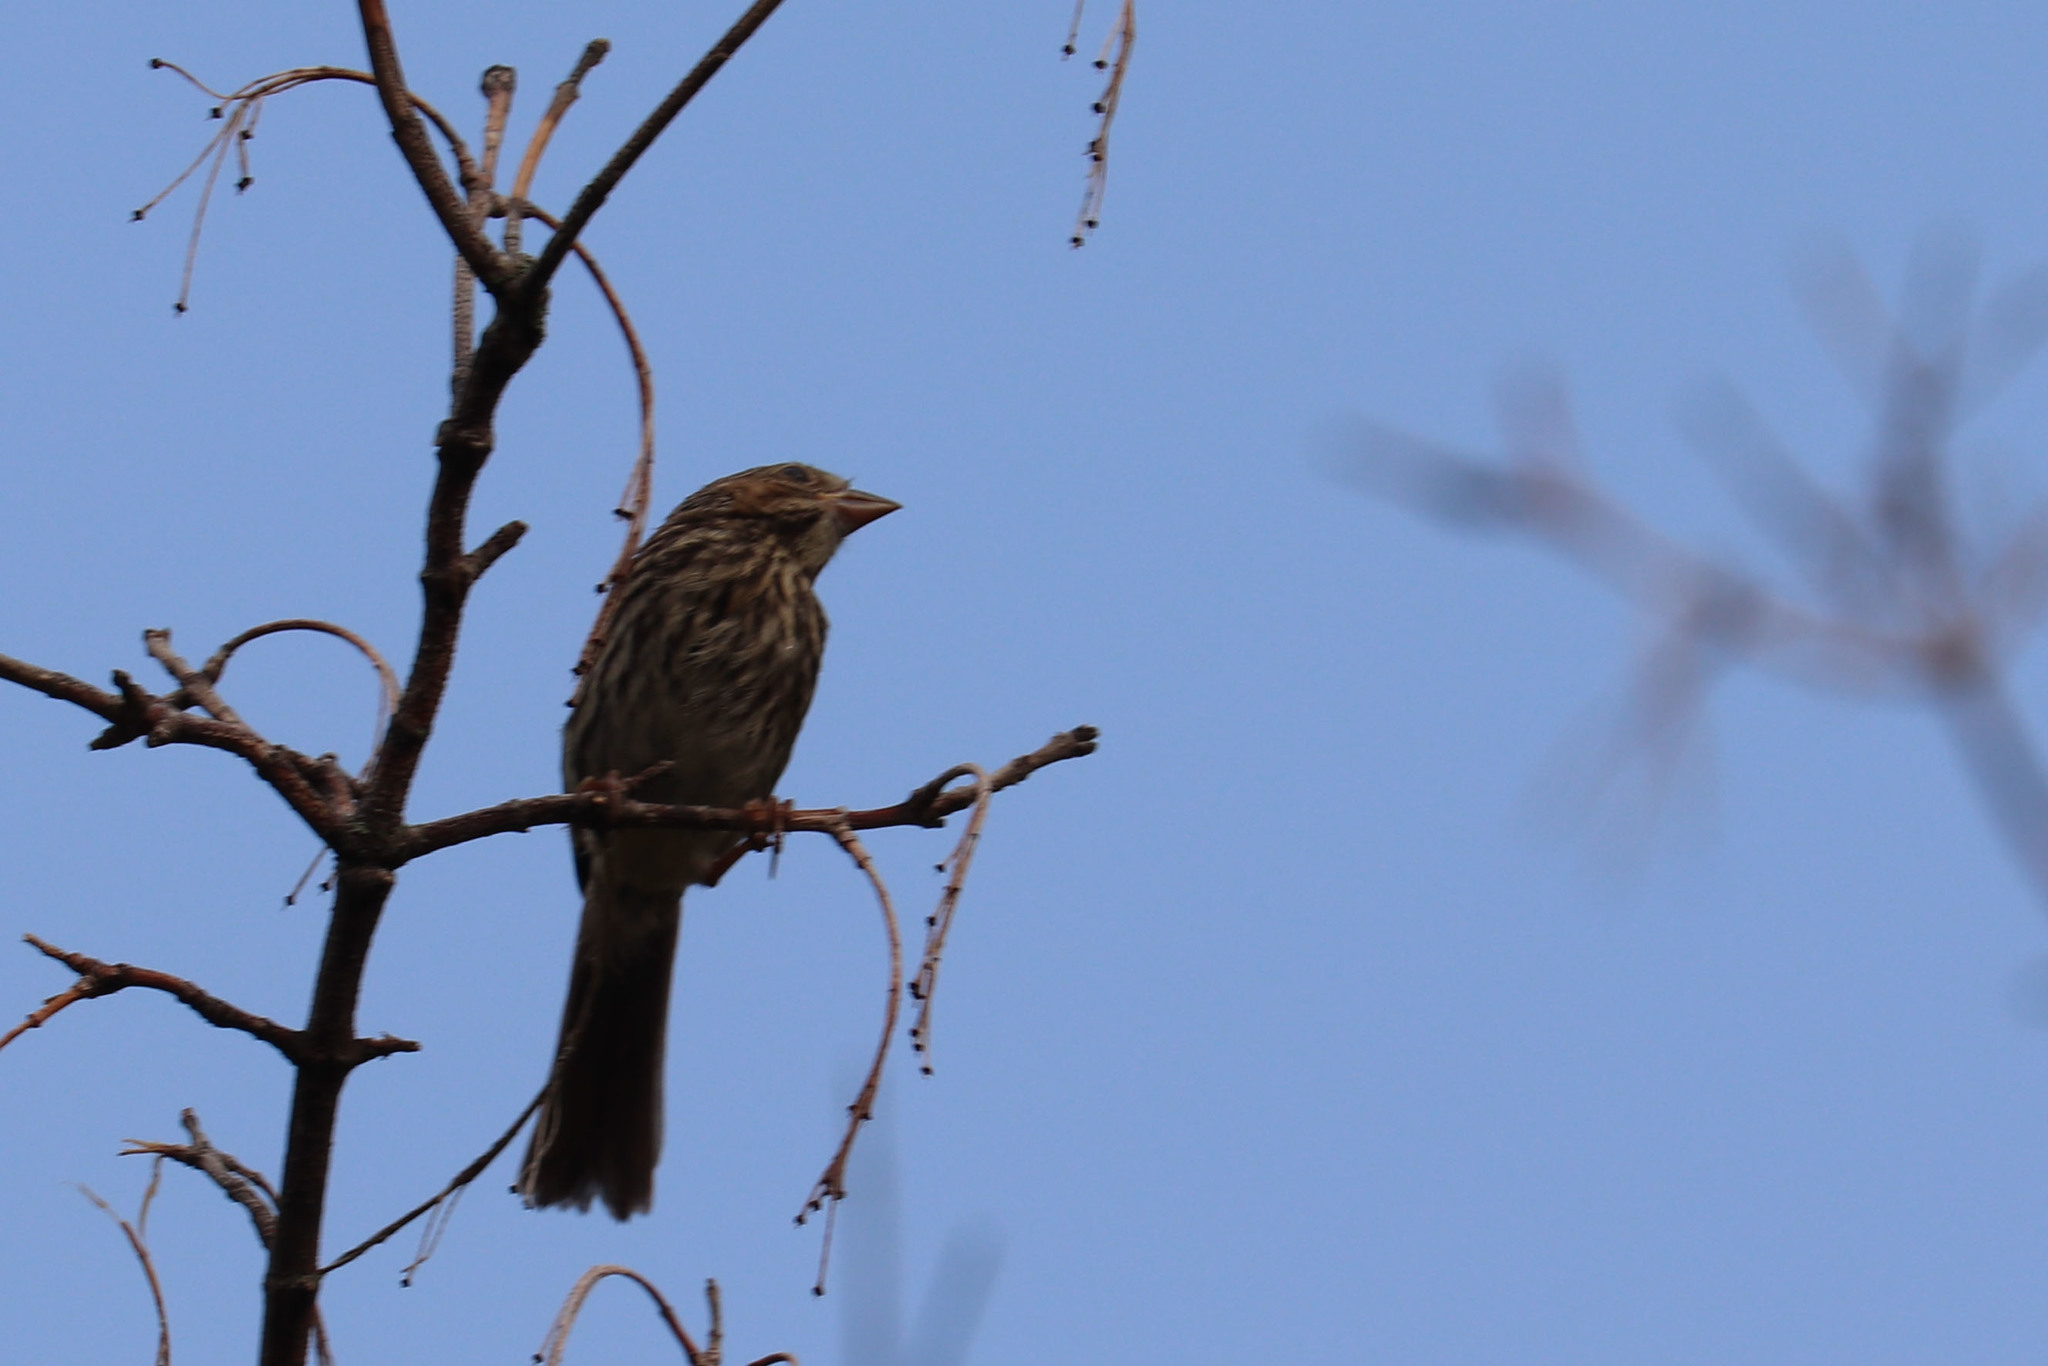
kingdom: Animalia
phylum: Chordata
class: Aves
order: Passeriformes
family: Passerellidae
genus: Melospiza
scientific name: Melospiza melodia
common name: Song sparrow
